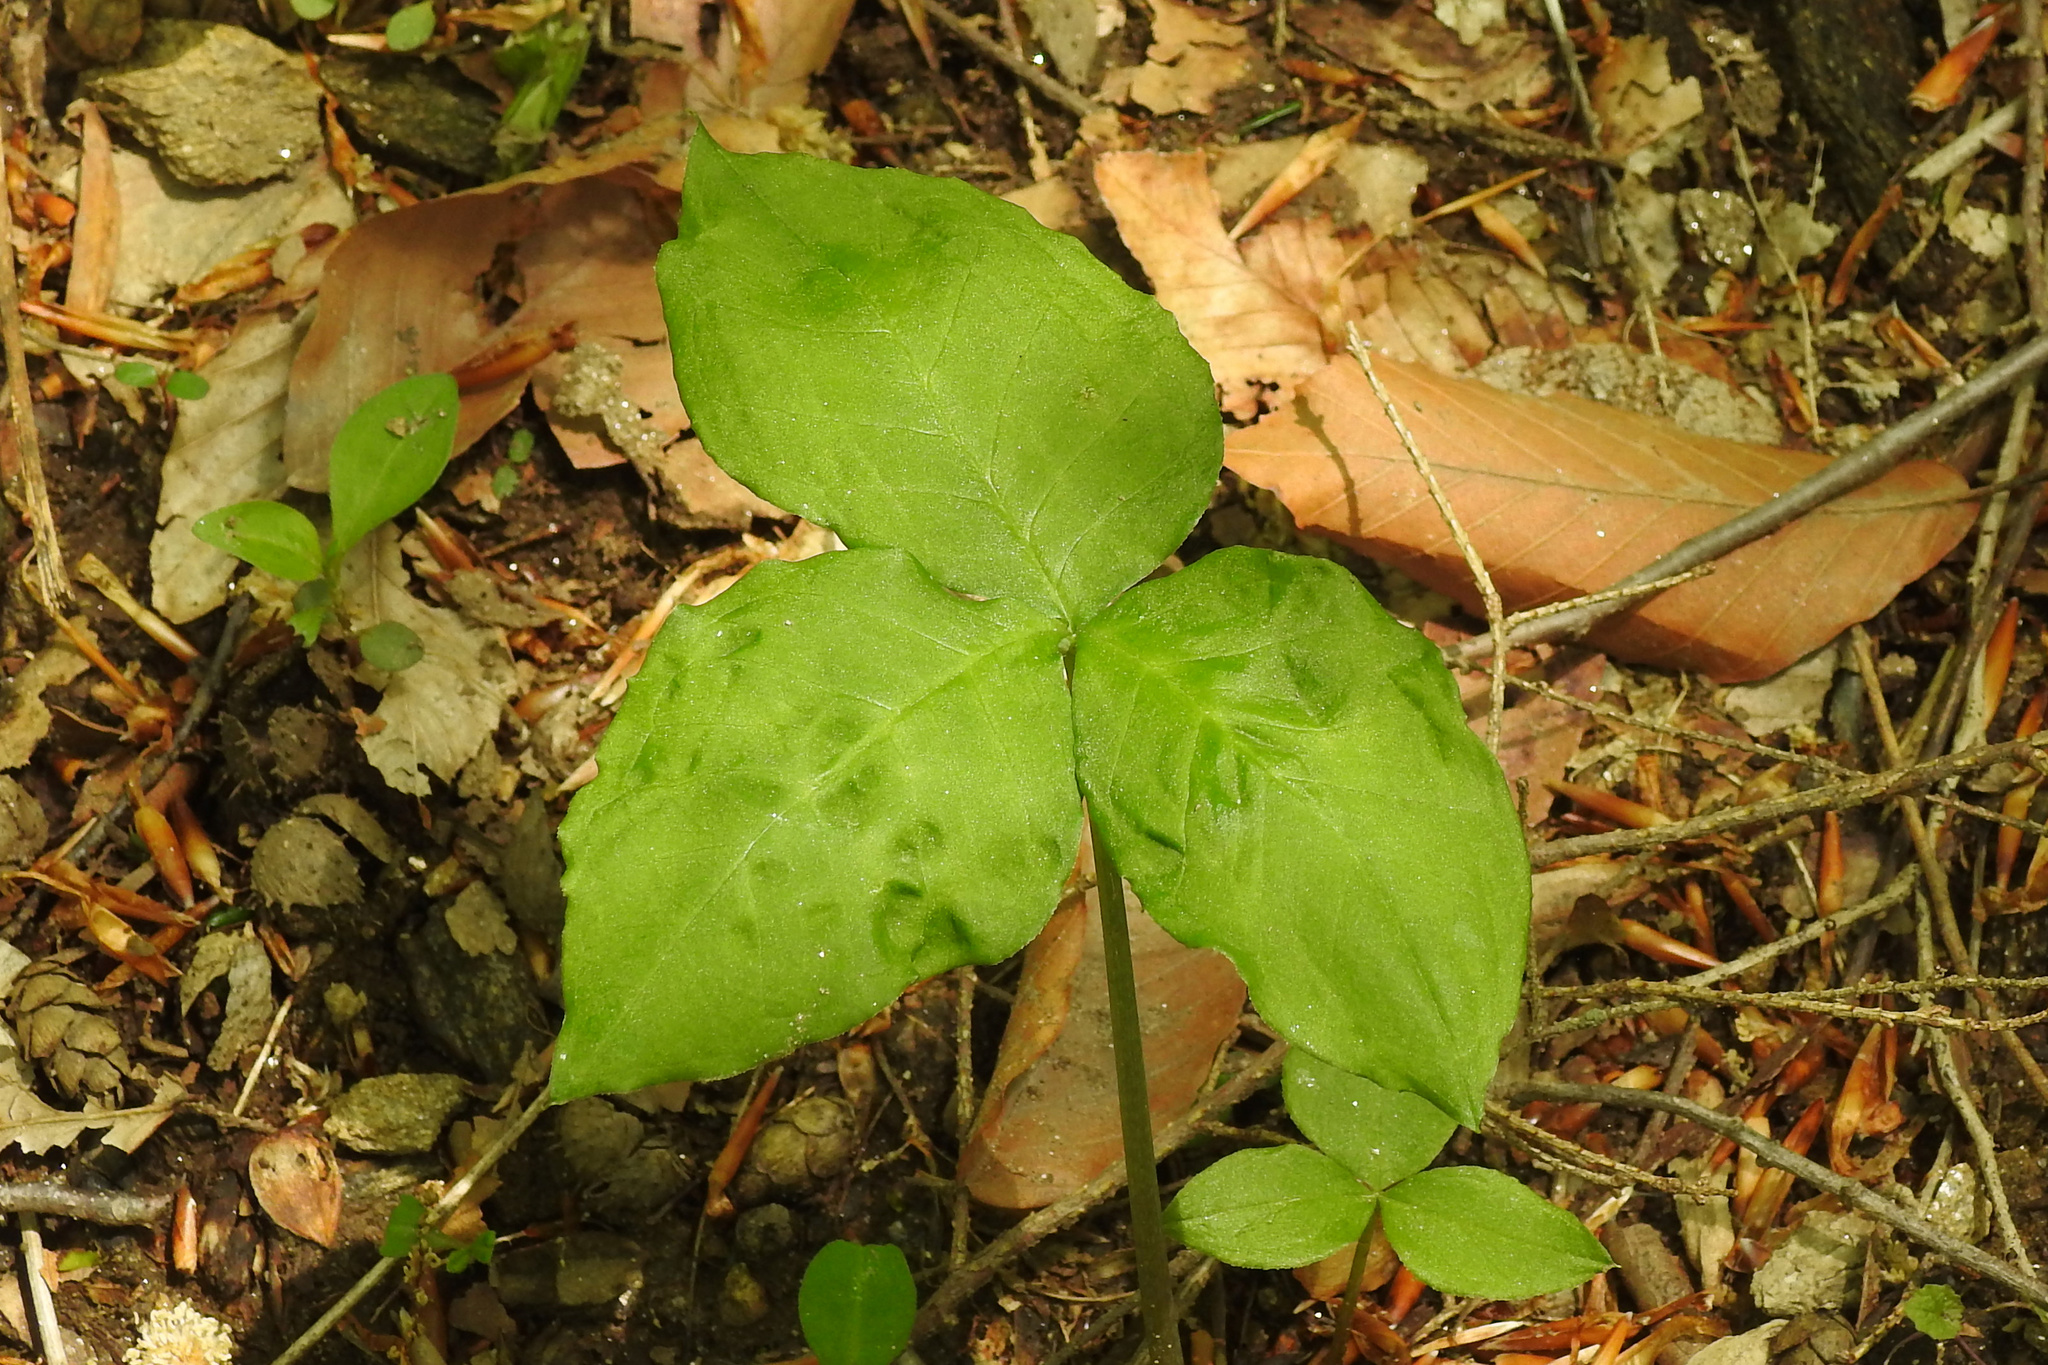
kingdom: Plantae
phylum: Tracheophyta
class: Liliopsida
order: Alismatales
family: Araceae
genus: Arisaema
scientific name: Arisaema triphyllum
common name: Jack-in-the-pulpit
